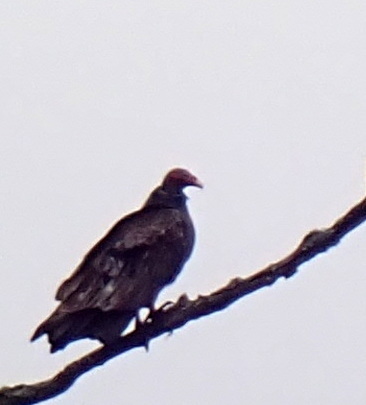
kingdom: Animalia
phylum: Chordata
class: Aves
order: Accipitriformes
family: Cathartidae
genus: Cathartes
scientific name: Cathartes aura
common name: Turkey vulture
